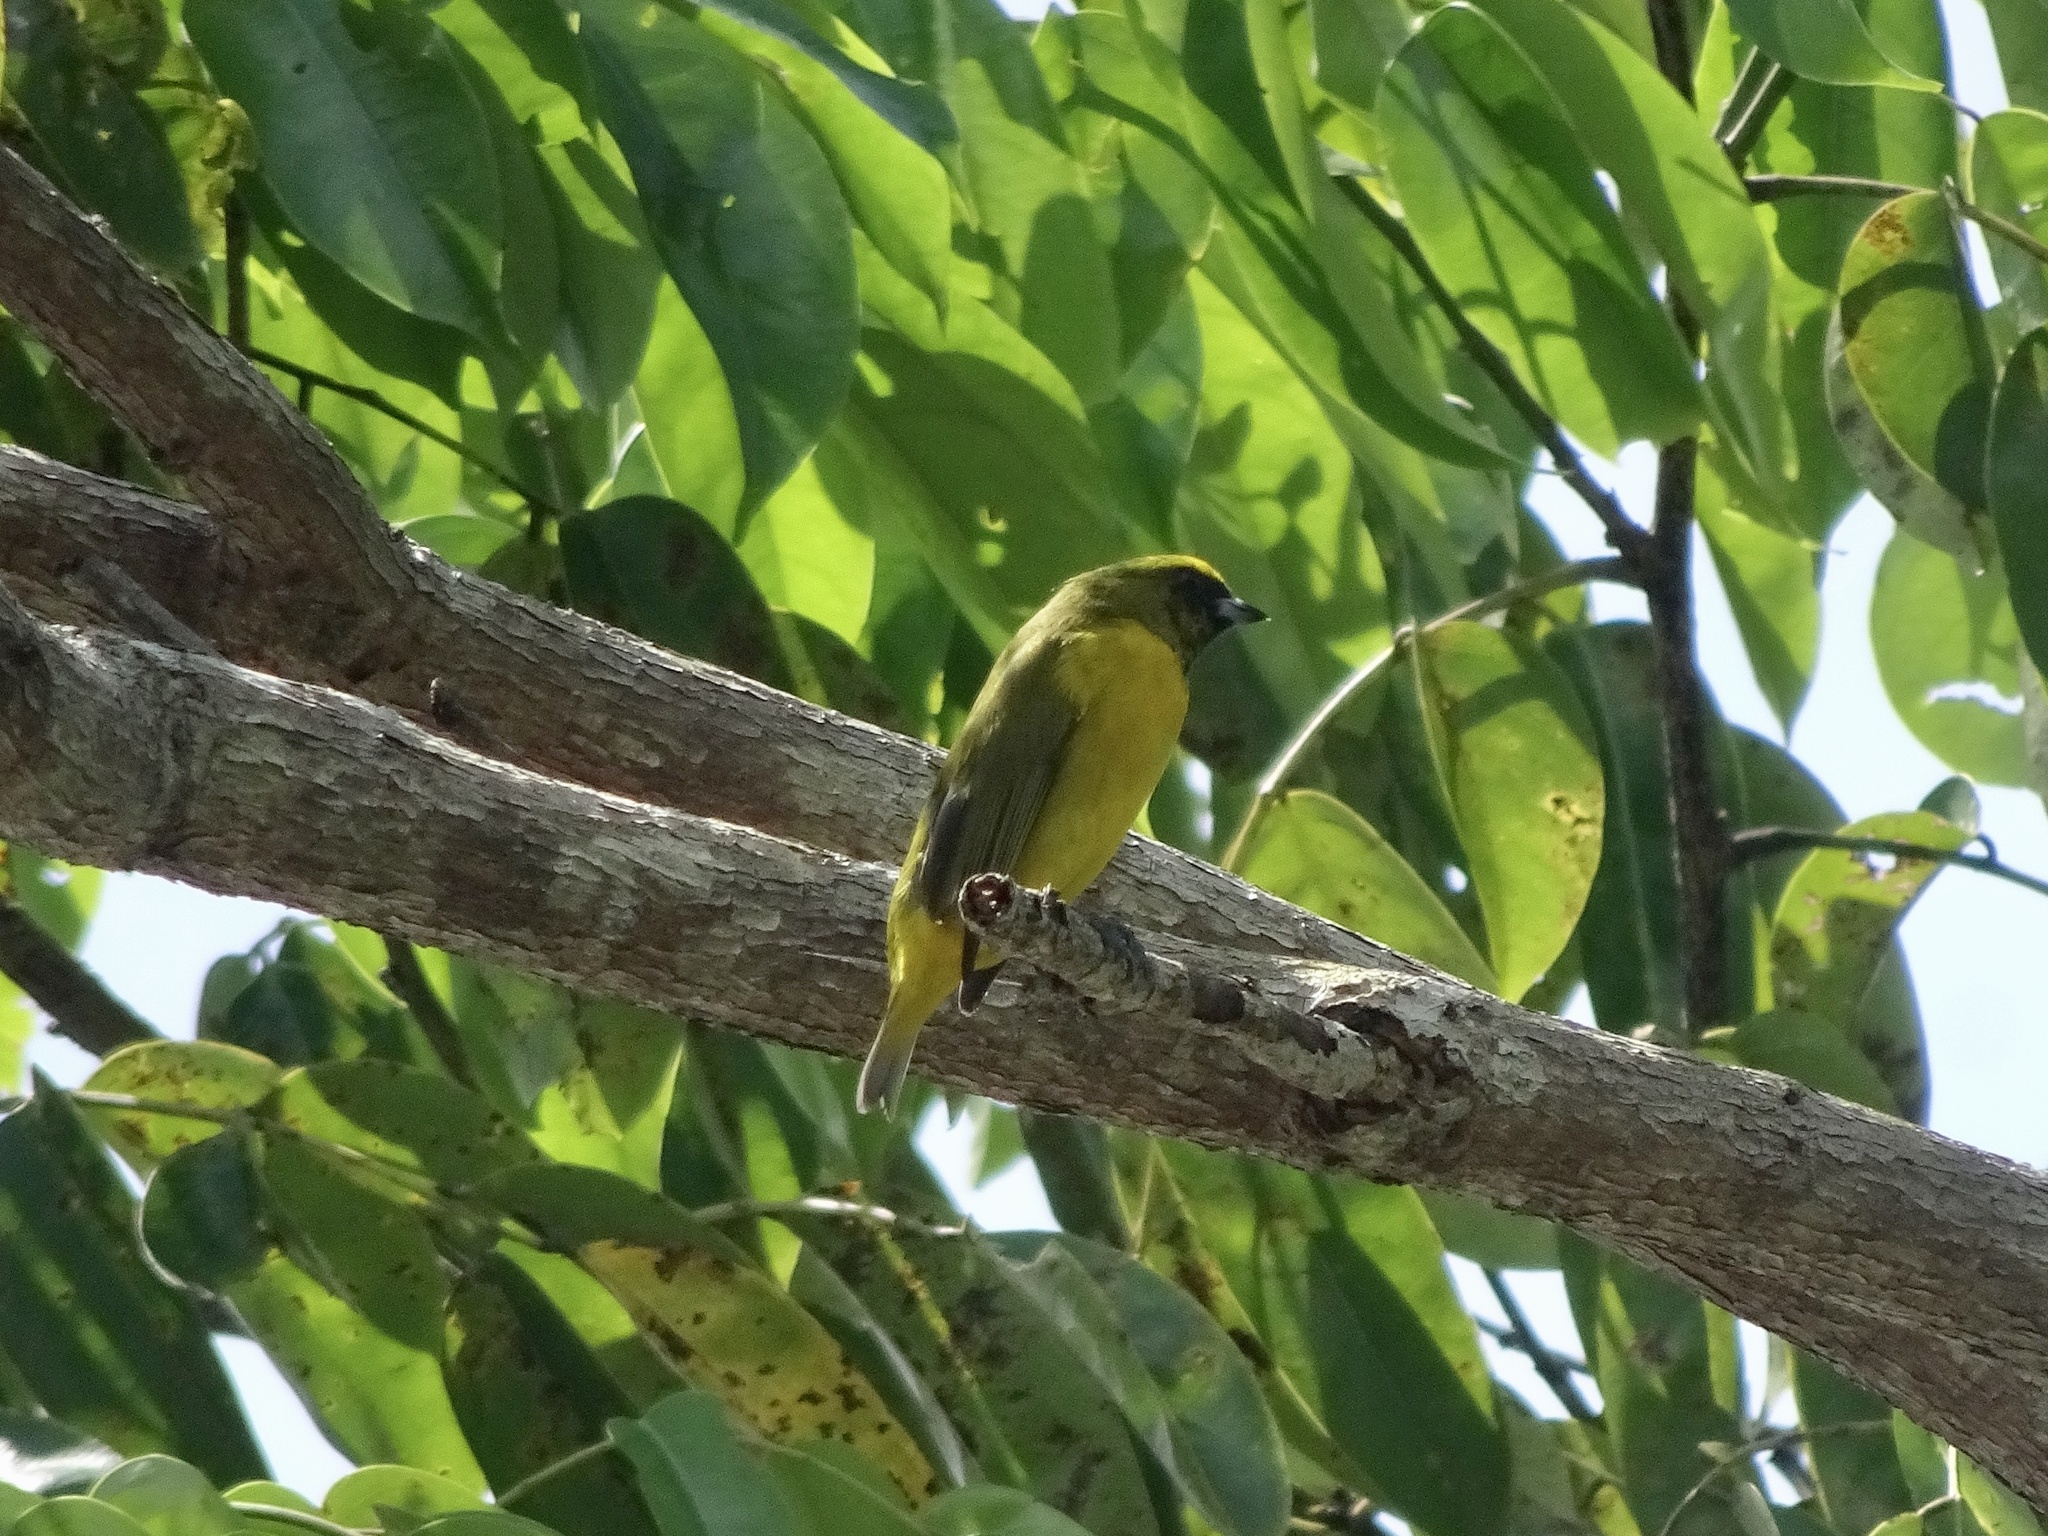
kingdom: Animalia
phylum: Chordata
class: Aves
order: Passeriformes
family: Fringillidae
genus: Euphonia
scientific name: Euphonia luteicapilla
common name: Yellow-crowned euphonia
